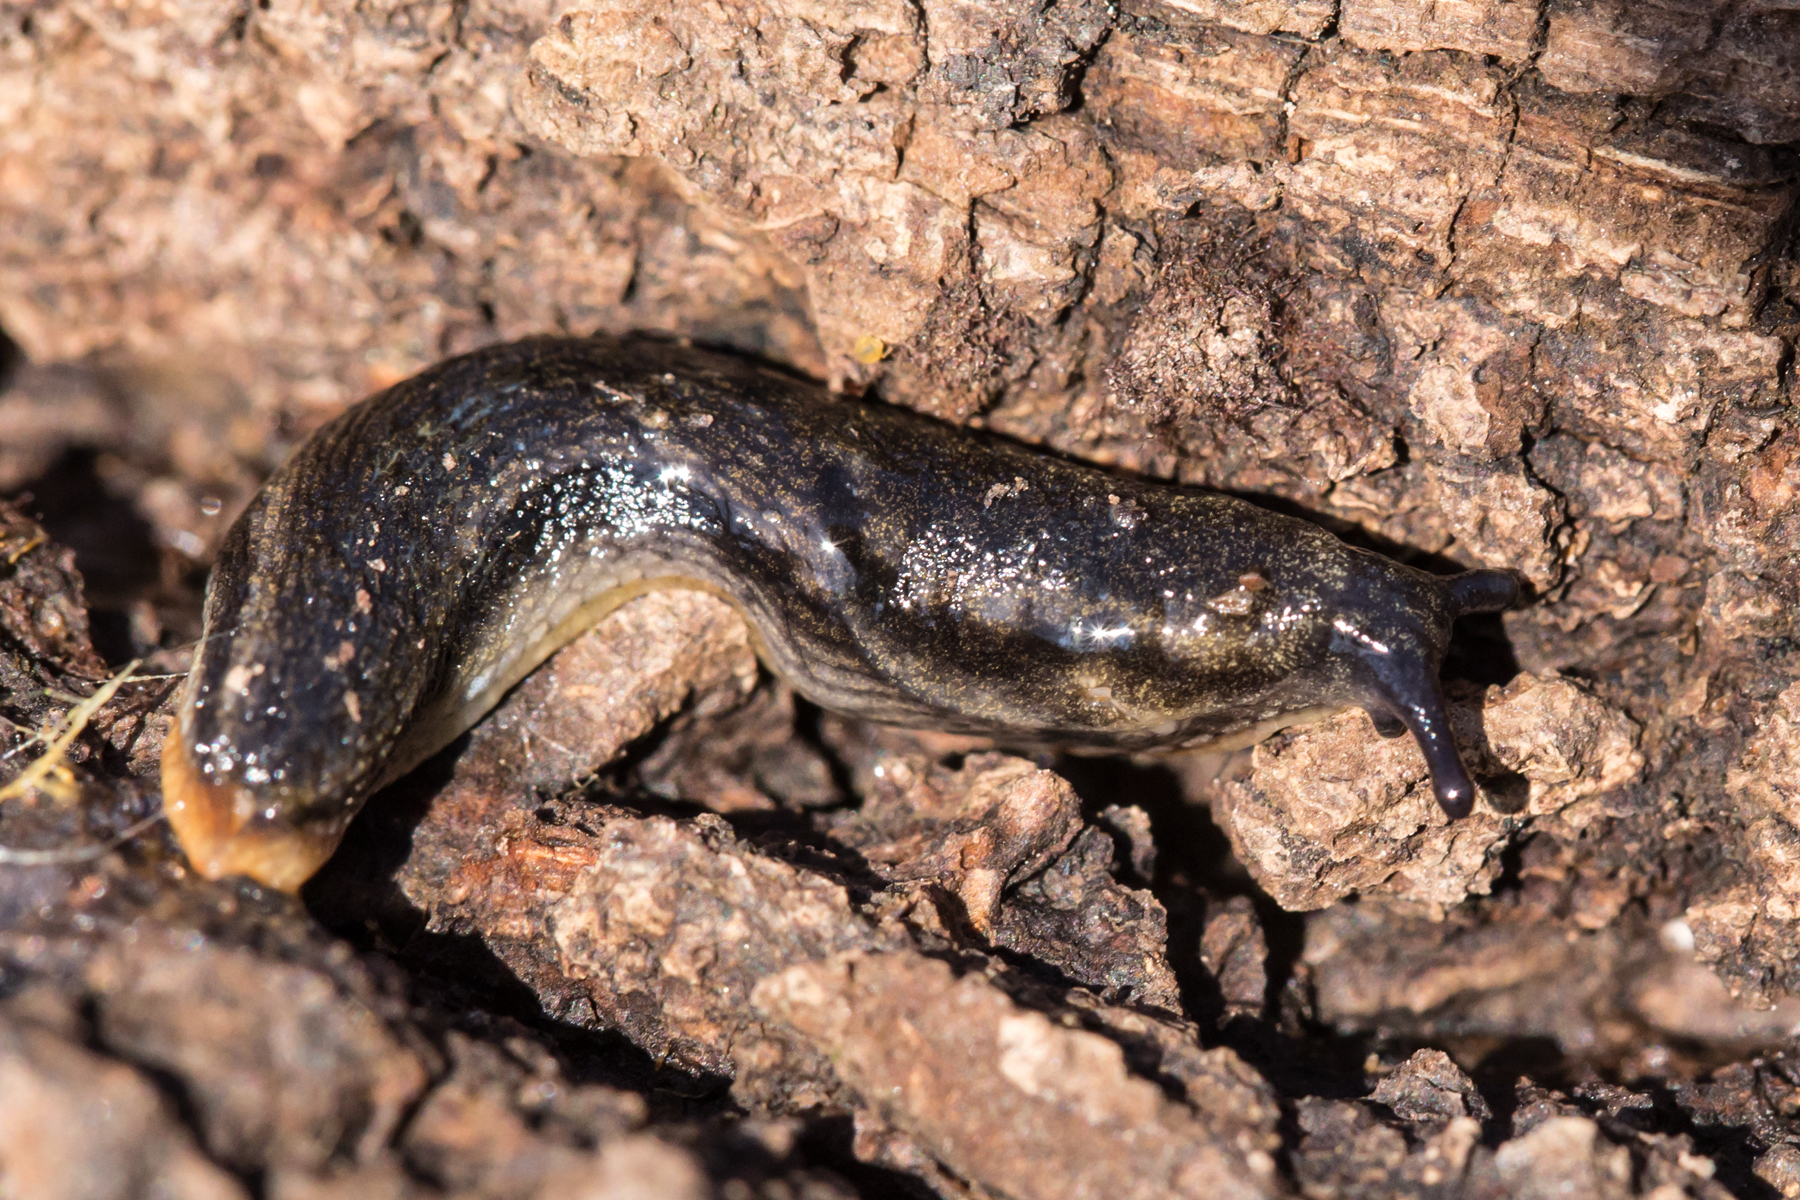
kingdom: Animalia
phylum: Mollusca
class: Gastropoda
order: Stylommatophora
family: Arionidae
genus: Kobeltia
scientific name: Kobeltia
